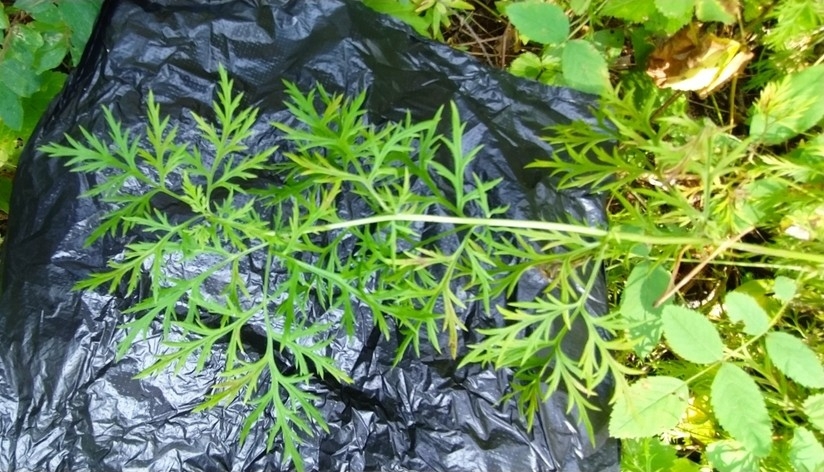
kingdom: Plantae
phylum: Tracheophyta
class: Magnoliopsida
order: Ranunculales
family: Ranunculaceae
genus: Adonis
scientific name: Adonis
